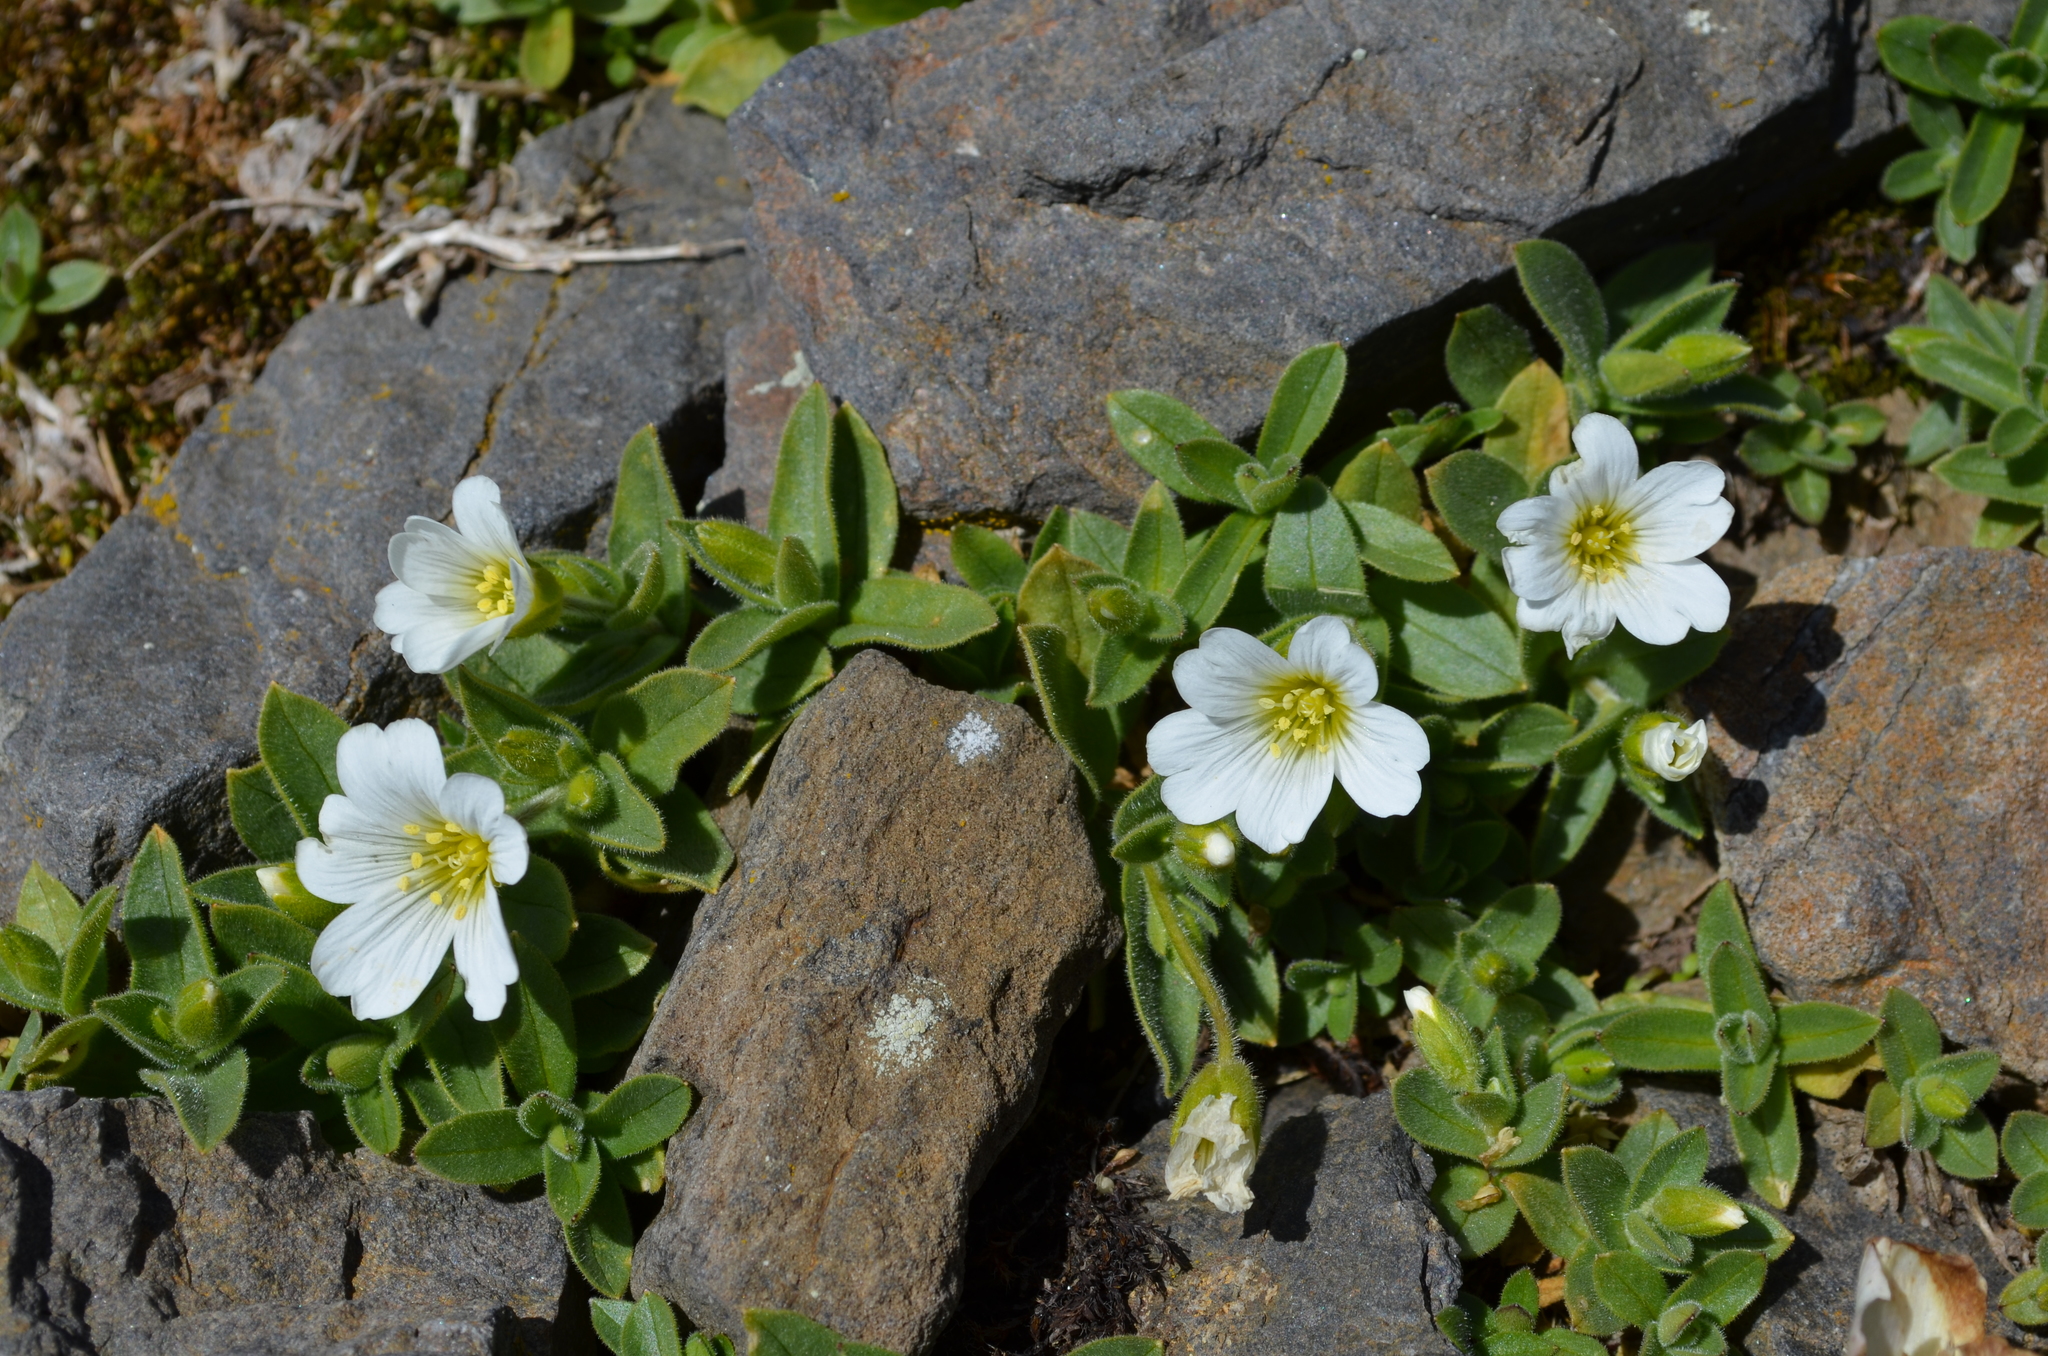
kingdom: Plantae
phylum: Tracheophyta
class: Magnoliopsida
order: Caryophyllales
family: Caryophyllaceae
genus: Cerastium
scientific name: Cerastium latifolium
